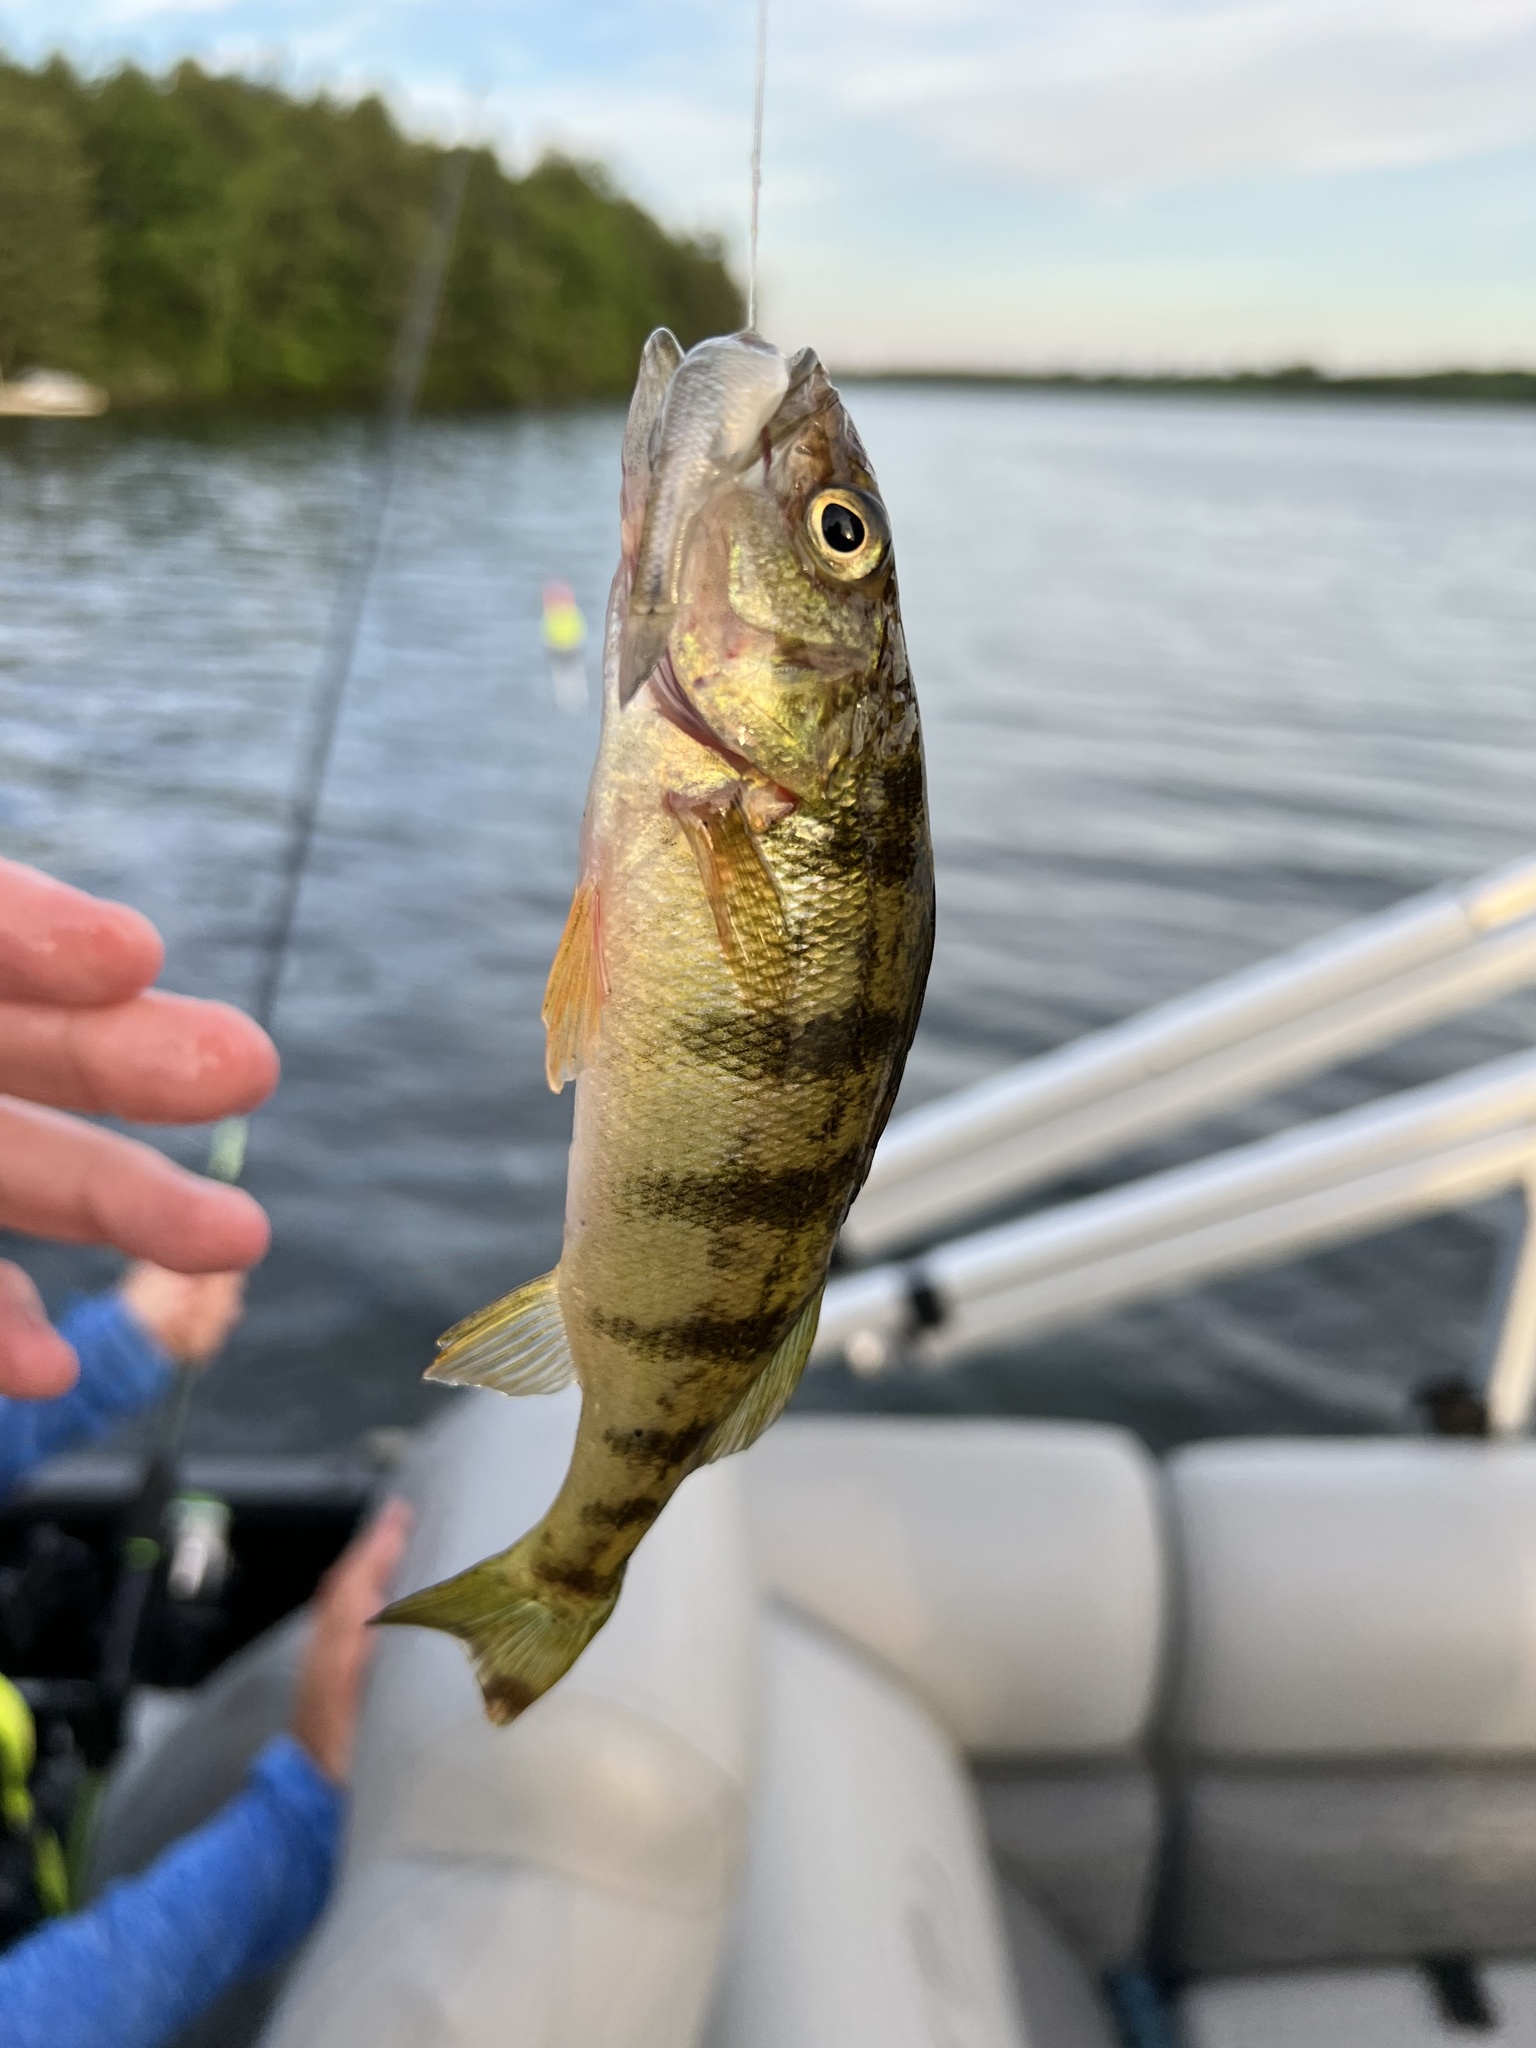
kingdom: Animalia
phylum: Chordata
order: Perciformes
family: Percidae
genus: Perca
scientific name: Perca flavescens
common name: Yellow perch
